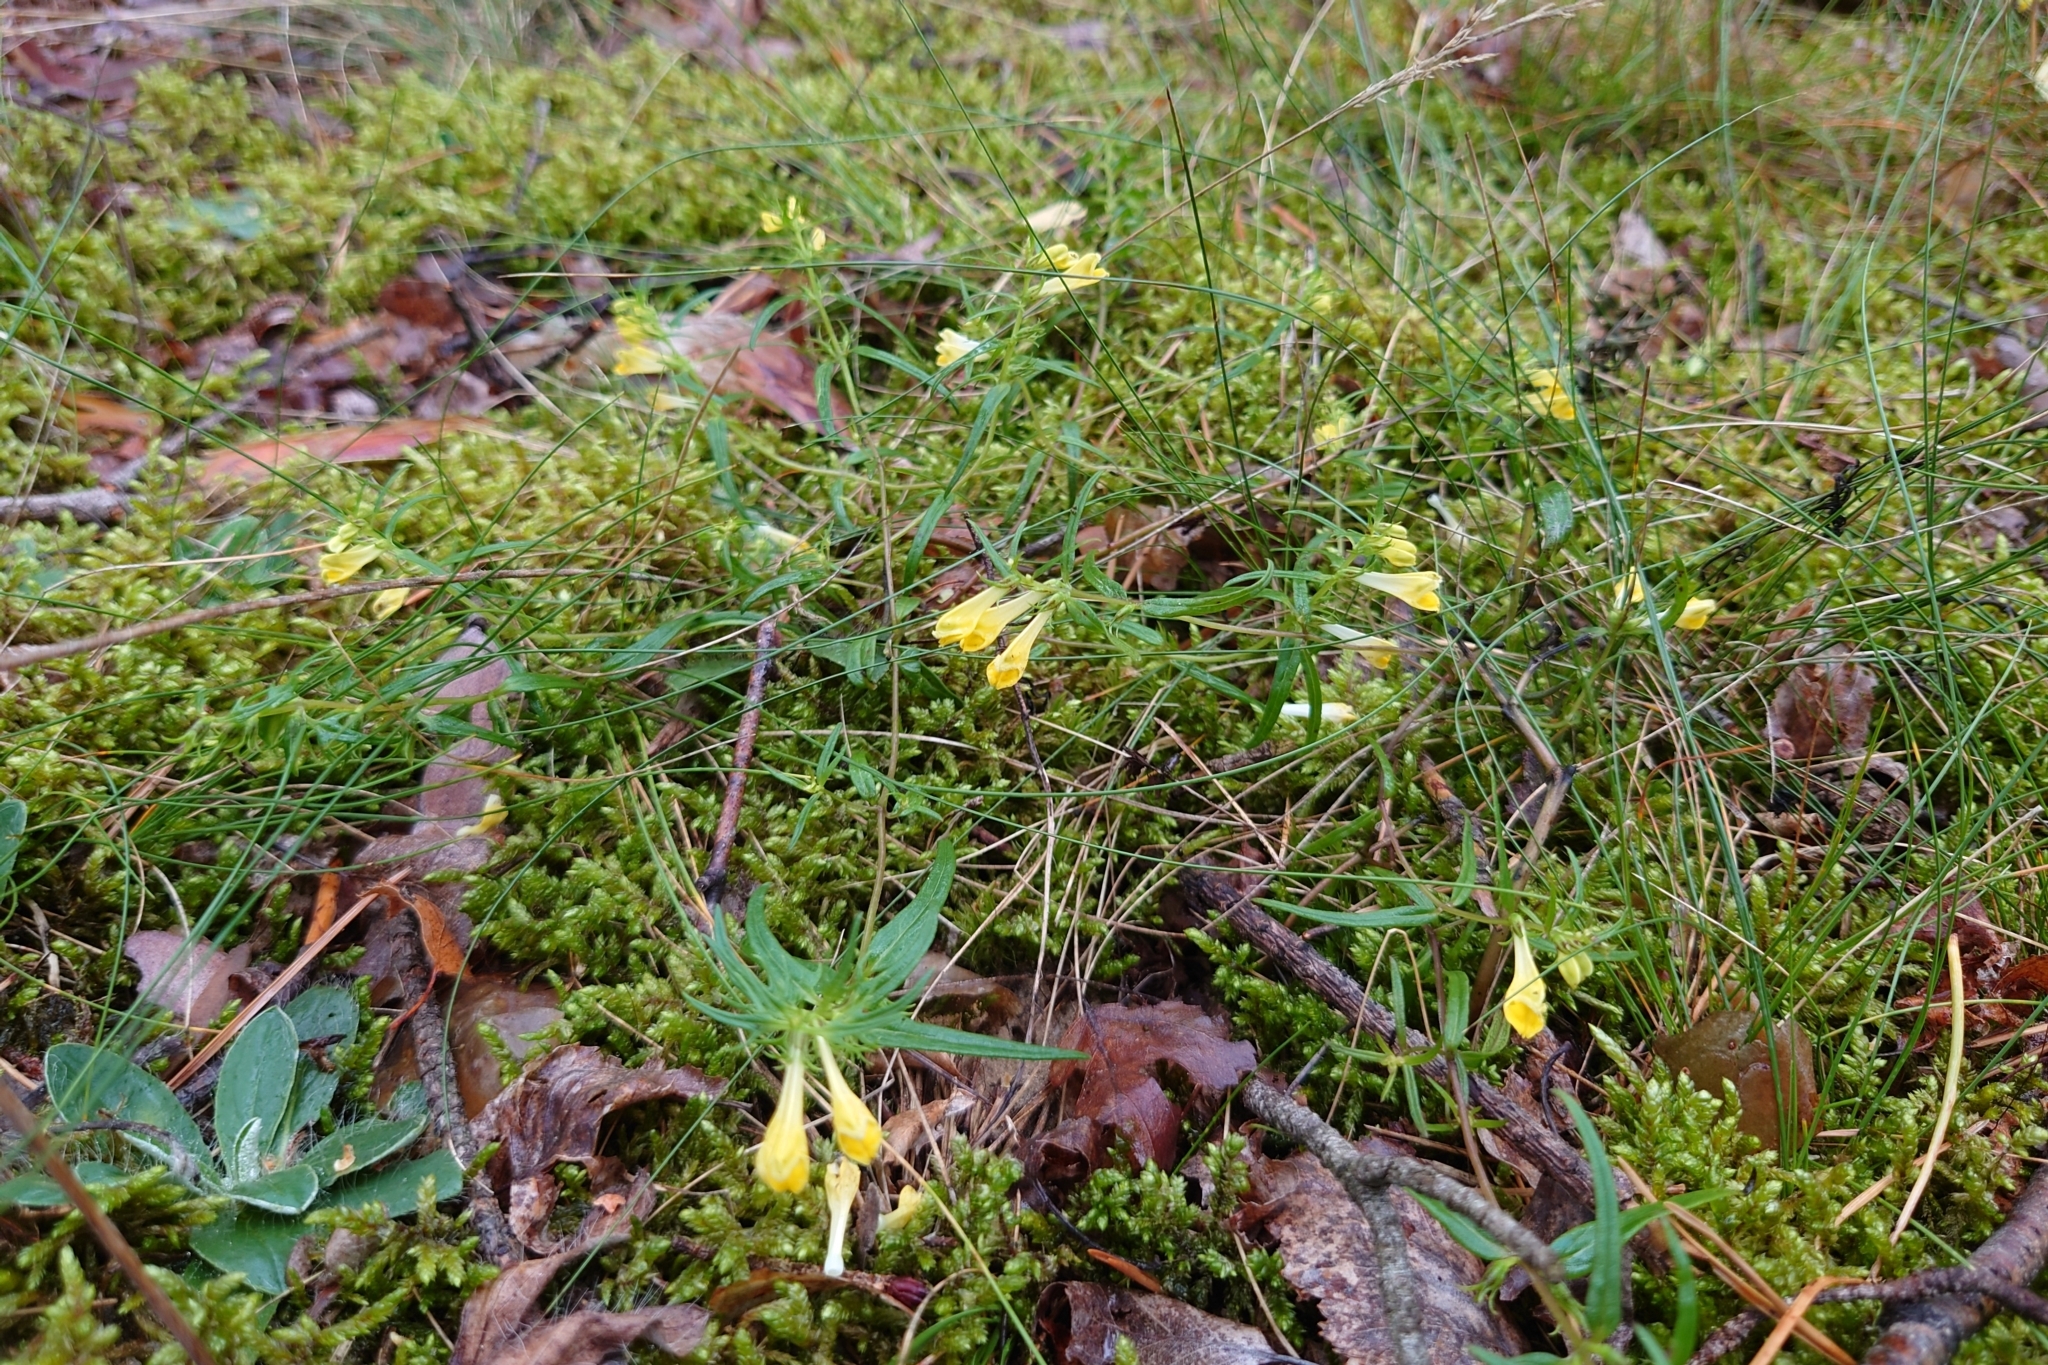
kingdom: Plantae
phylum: Tracheophyta
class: Magnoliopsida
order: Lamiales
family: Orobanchaceae
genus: Melampyrum
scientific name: Melampyrum pratense
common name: Common cow-wheat
